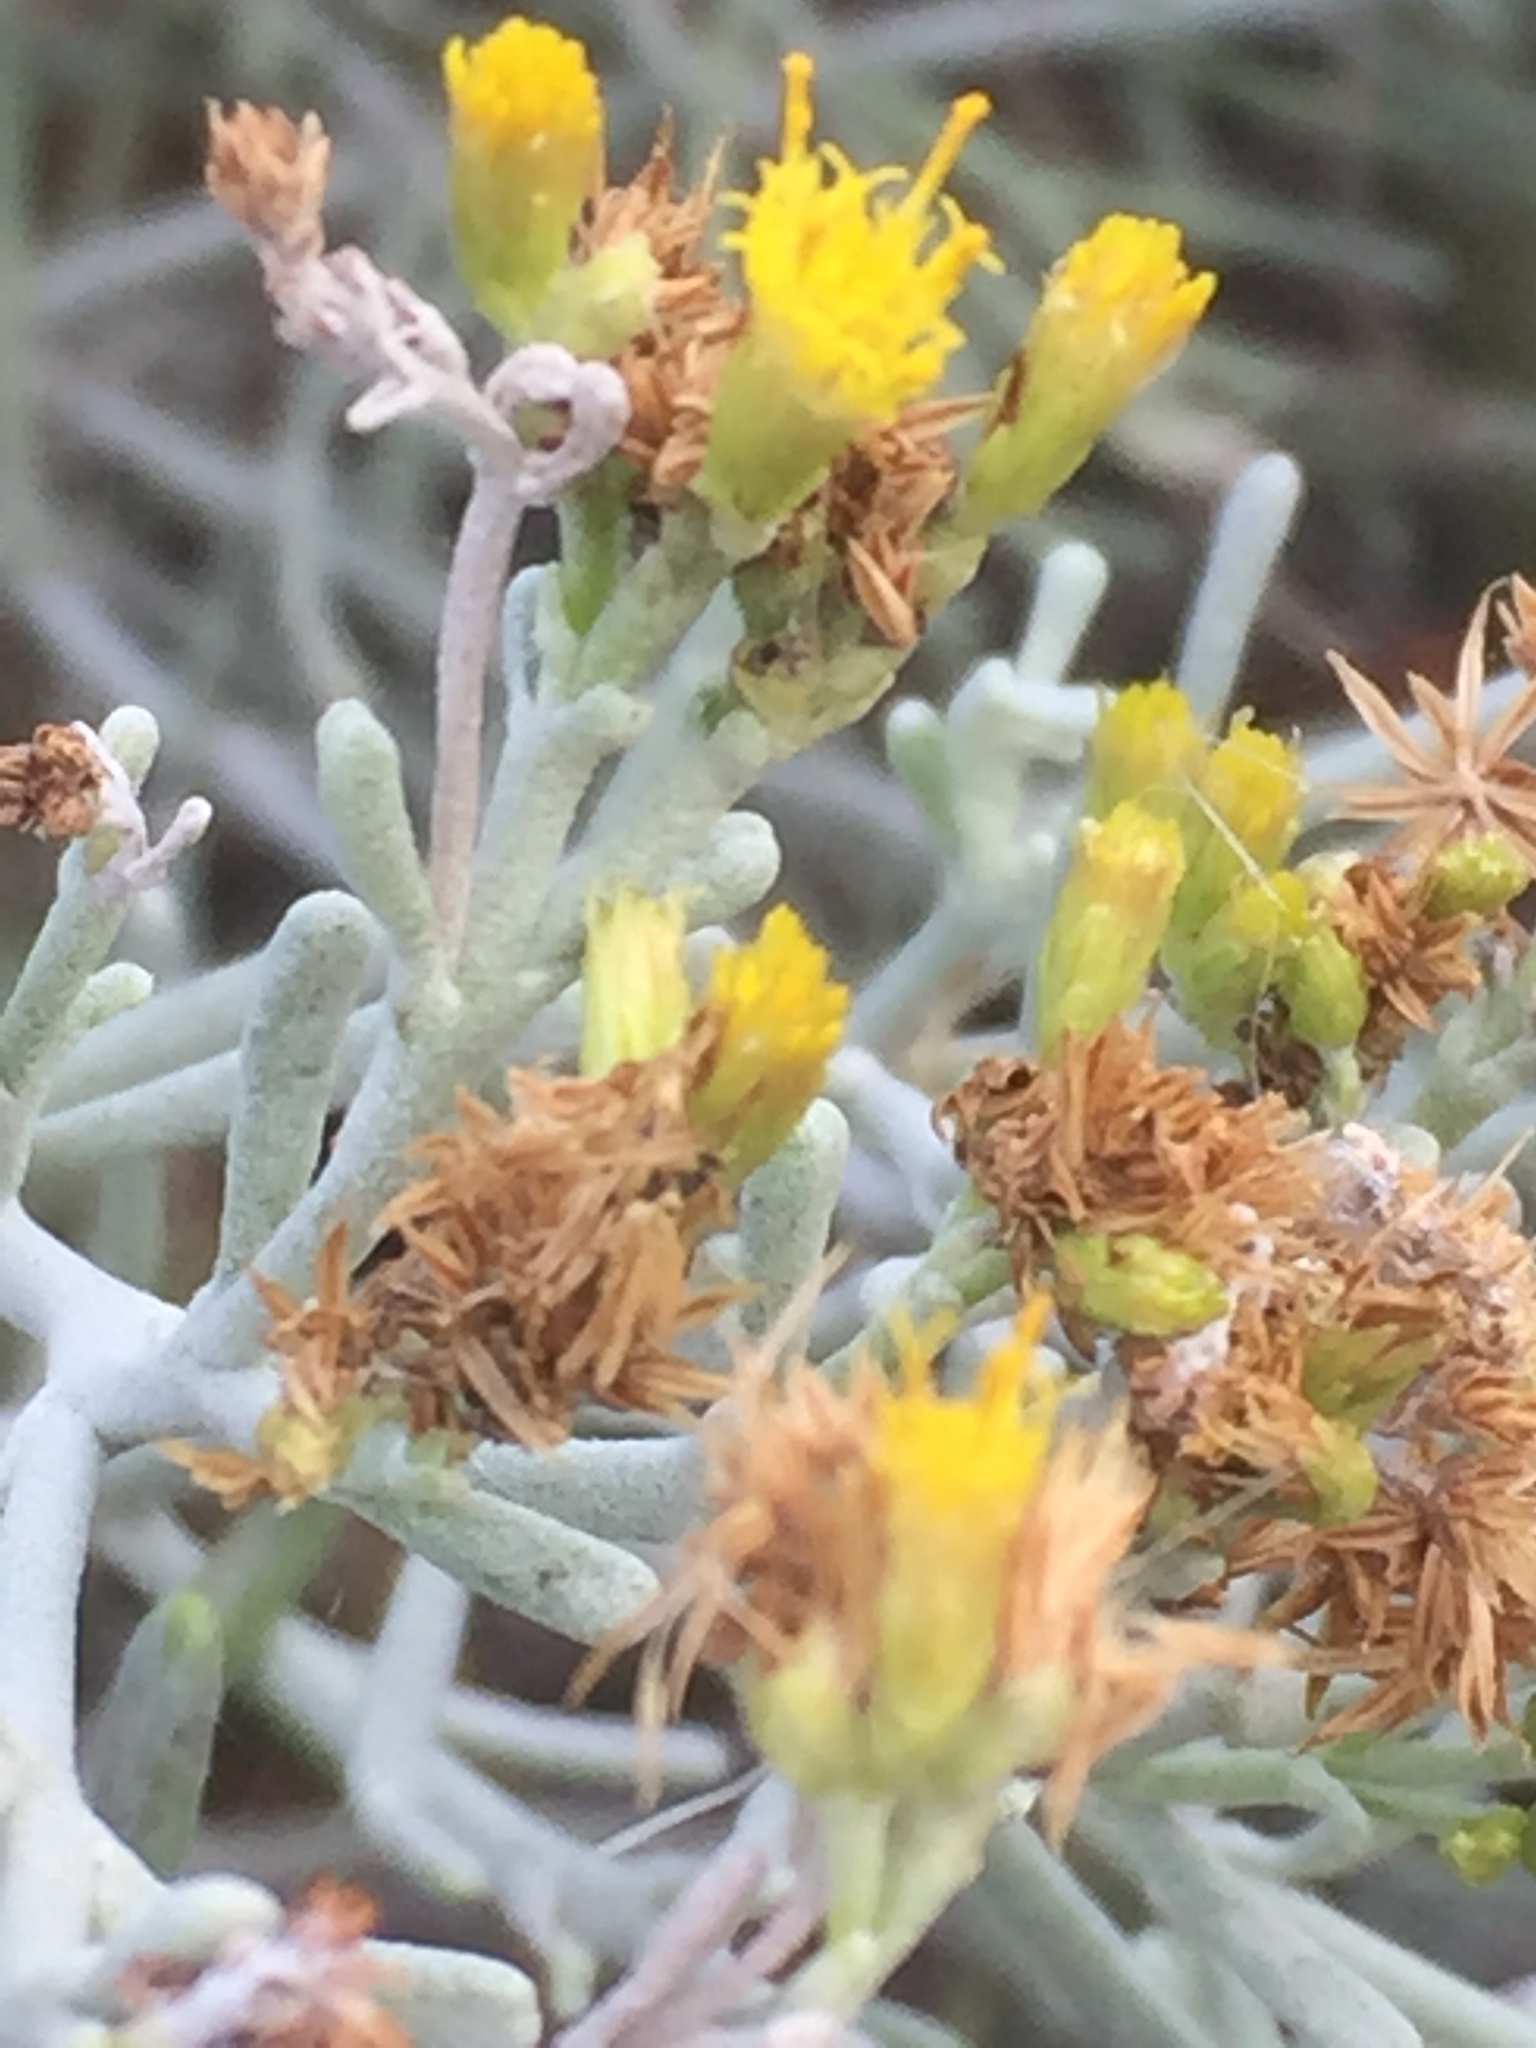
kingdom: Plantae
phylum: Tracheophyta
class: Magnoliopsida
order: Asterales
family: Asteraceae
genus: Artemisia
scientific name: Artemisia thuscula
